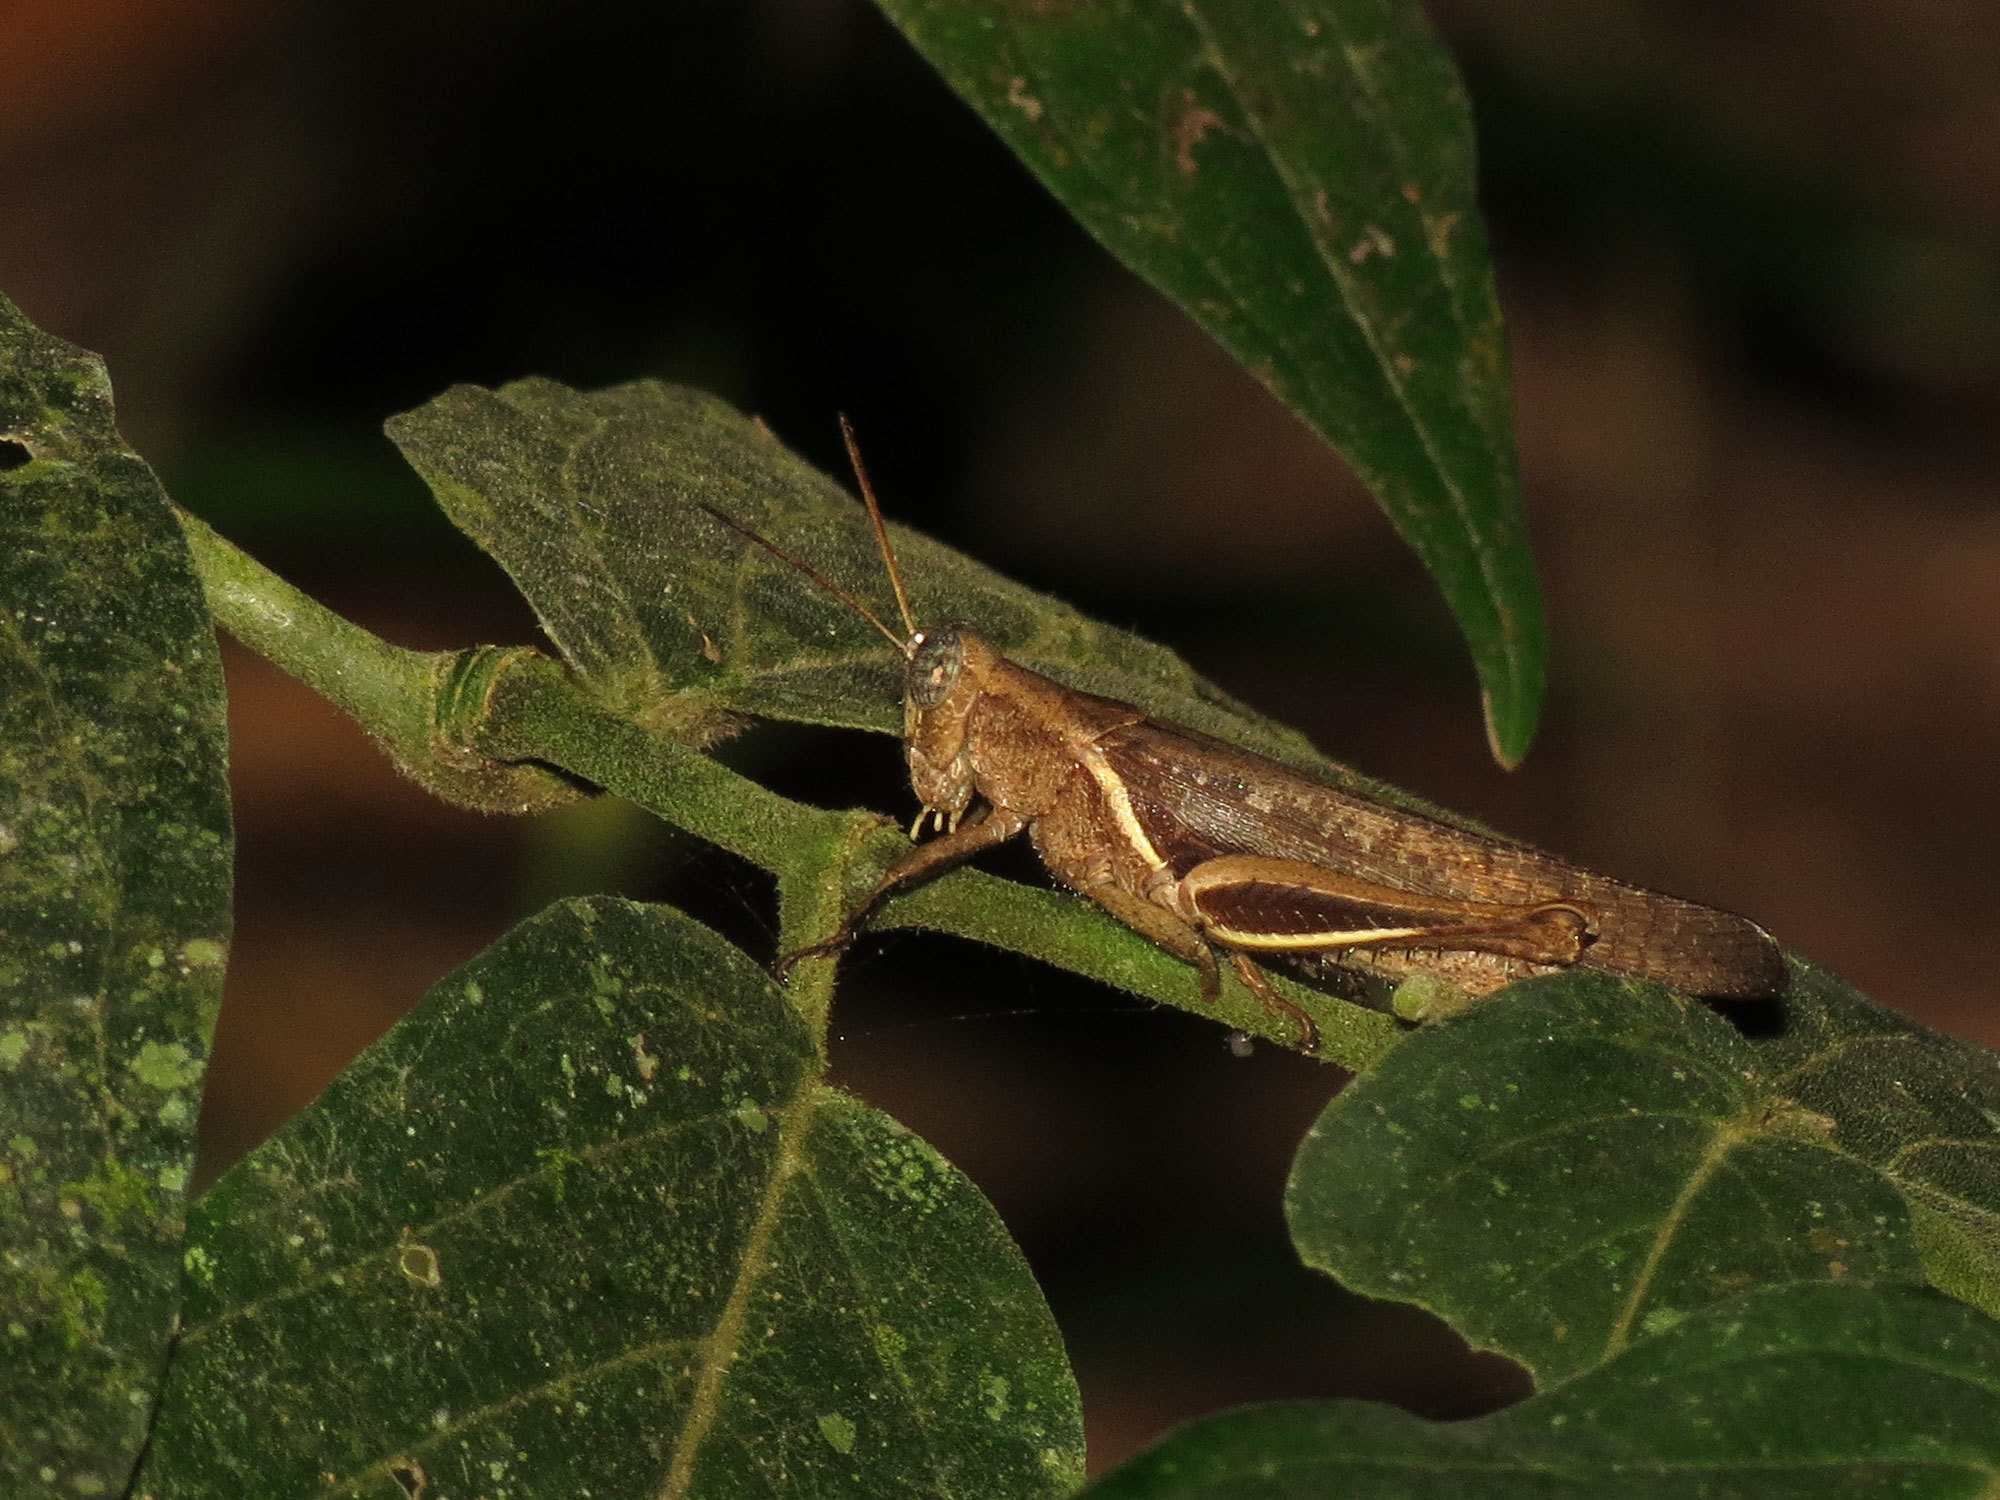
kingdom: Animalia
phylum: Arthropoda
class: Insecta
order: Orthoptera
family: Acrididae
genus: Abracris
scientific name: Abracris flavolineata
